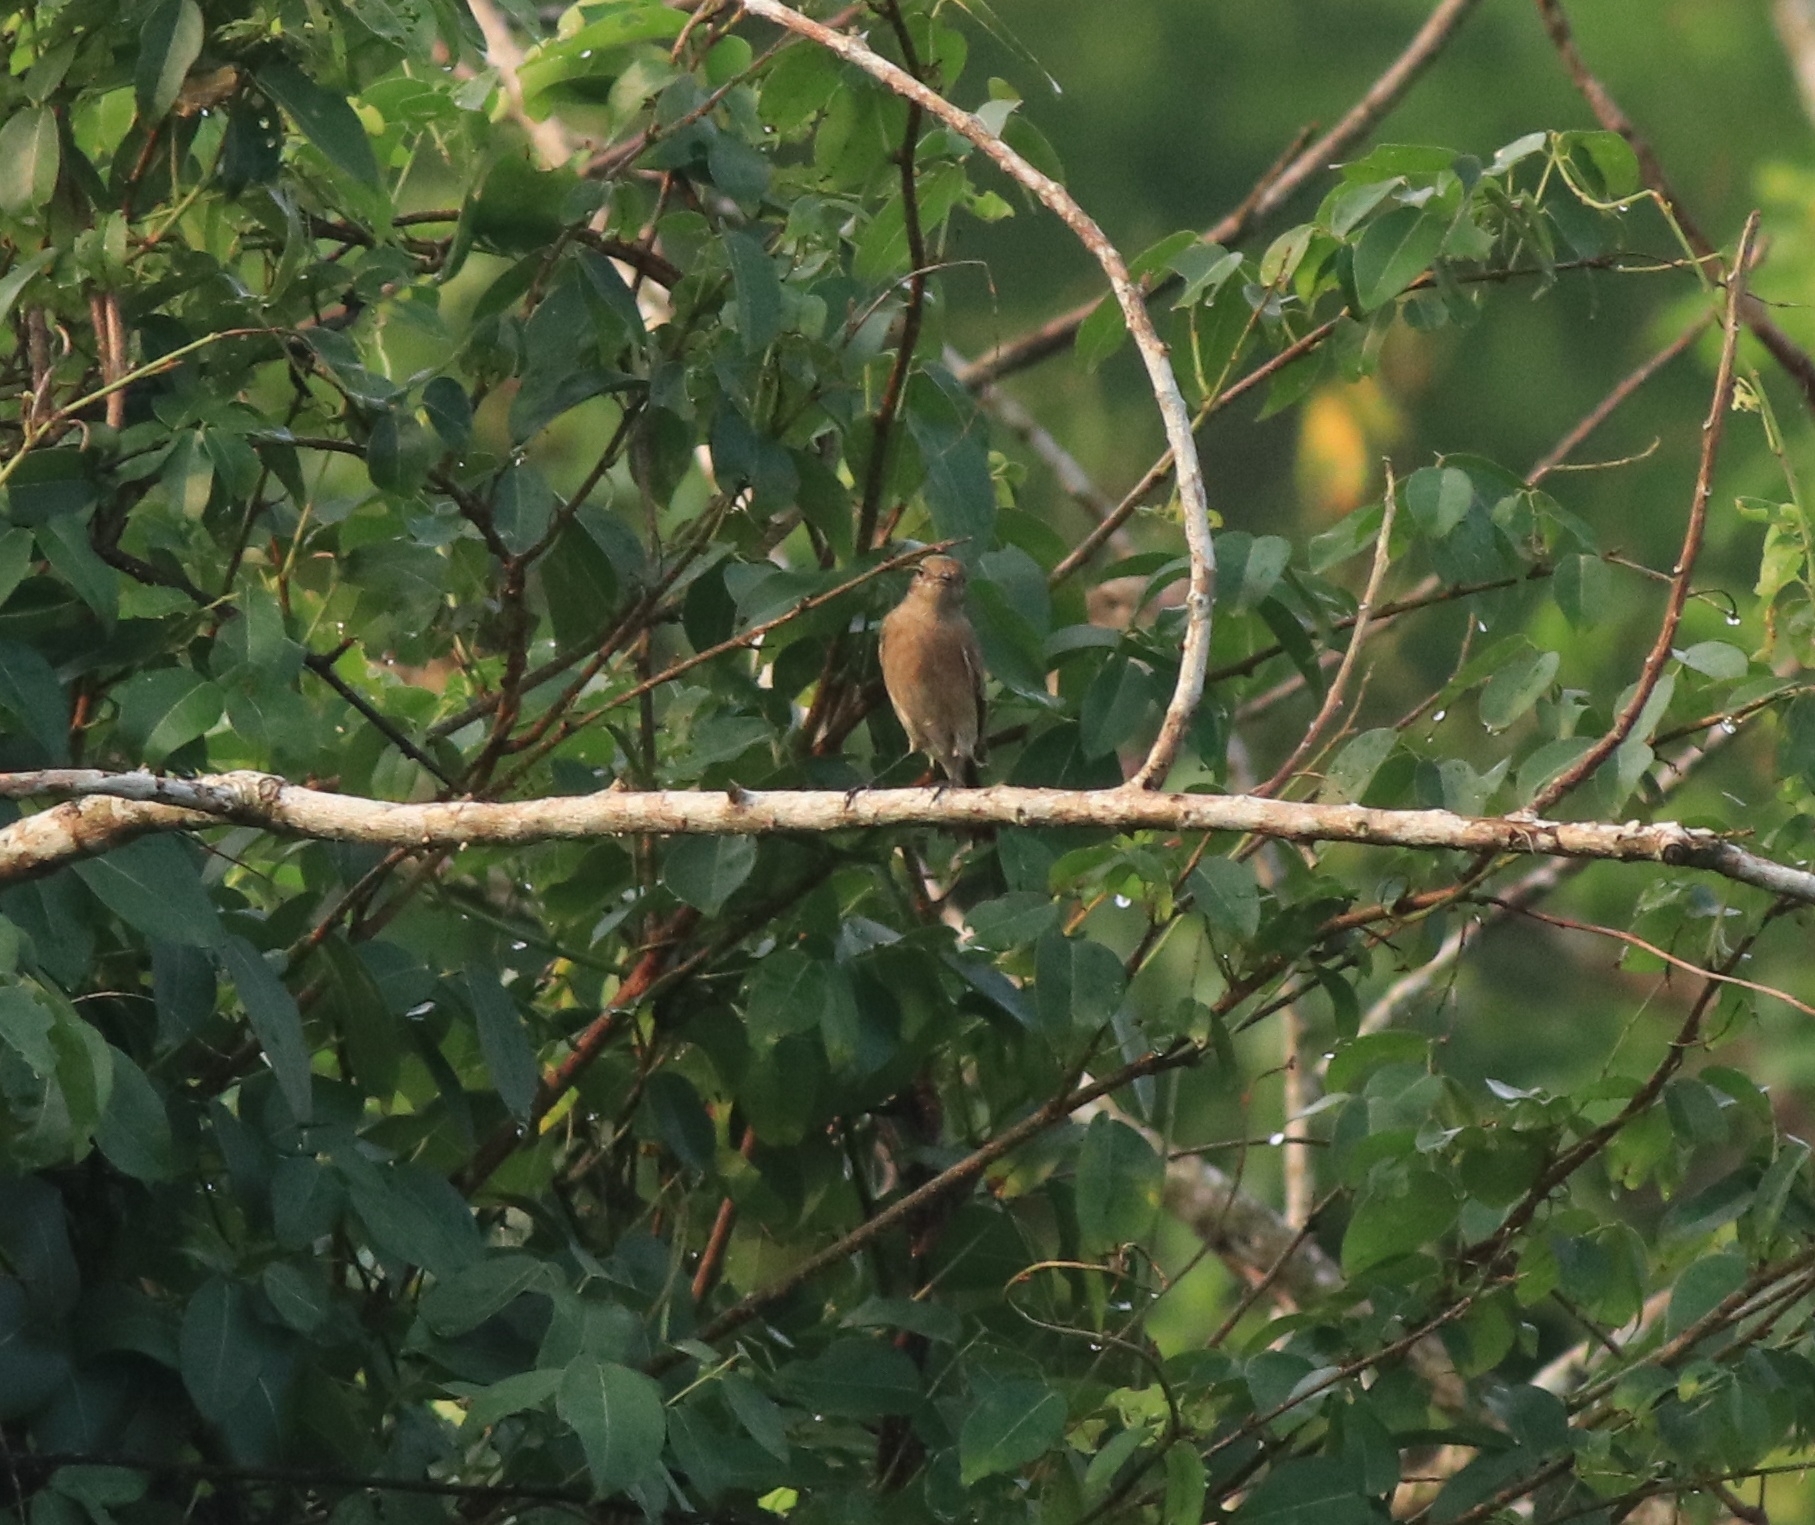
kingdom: Animalia
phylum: Chordata
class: Aves
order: Passeriformes
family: Muscicapidae
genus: Saxicola
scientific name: Saxicola caprata
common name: Pied bush chat
